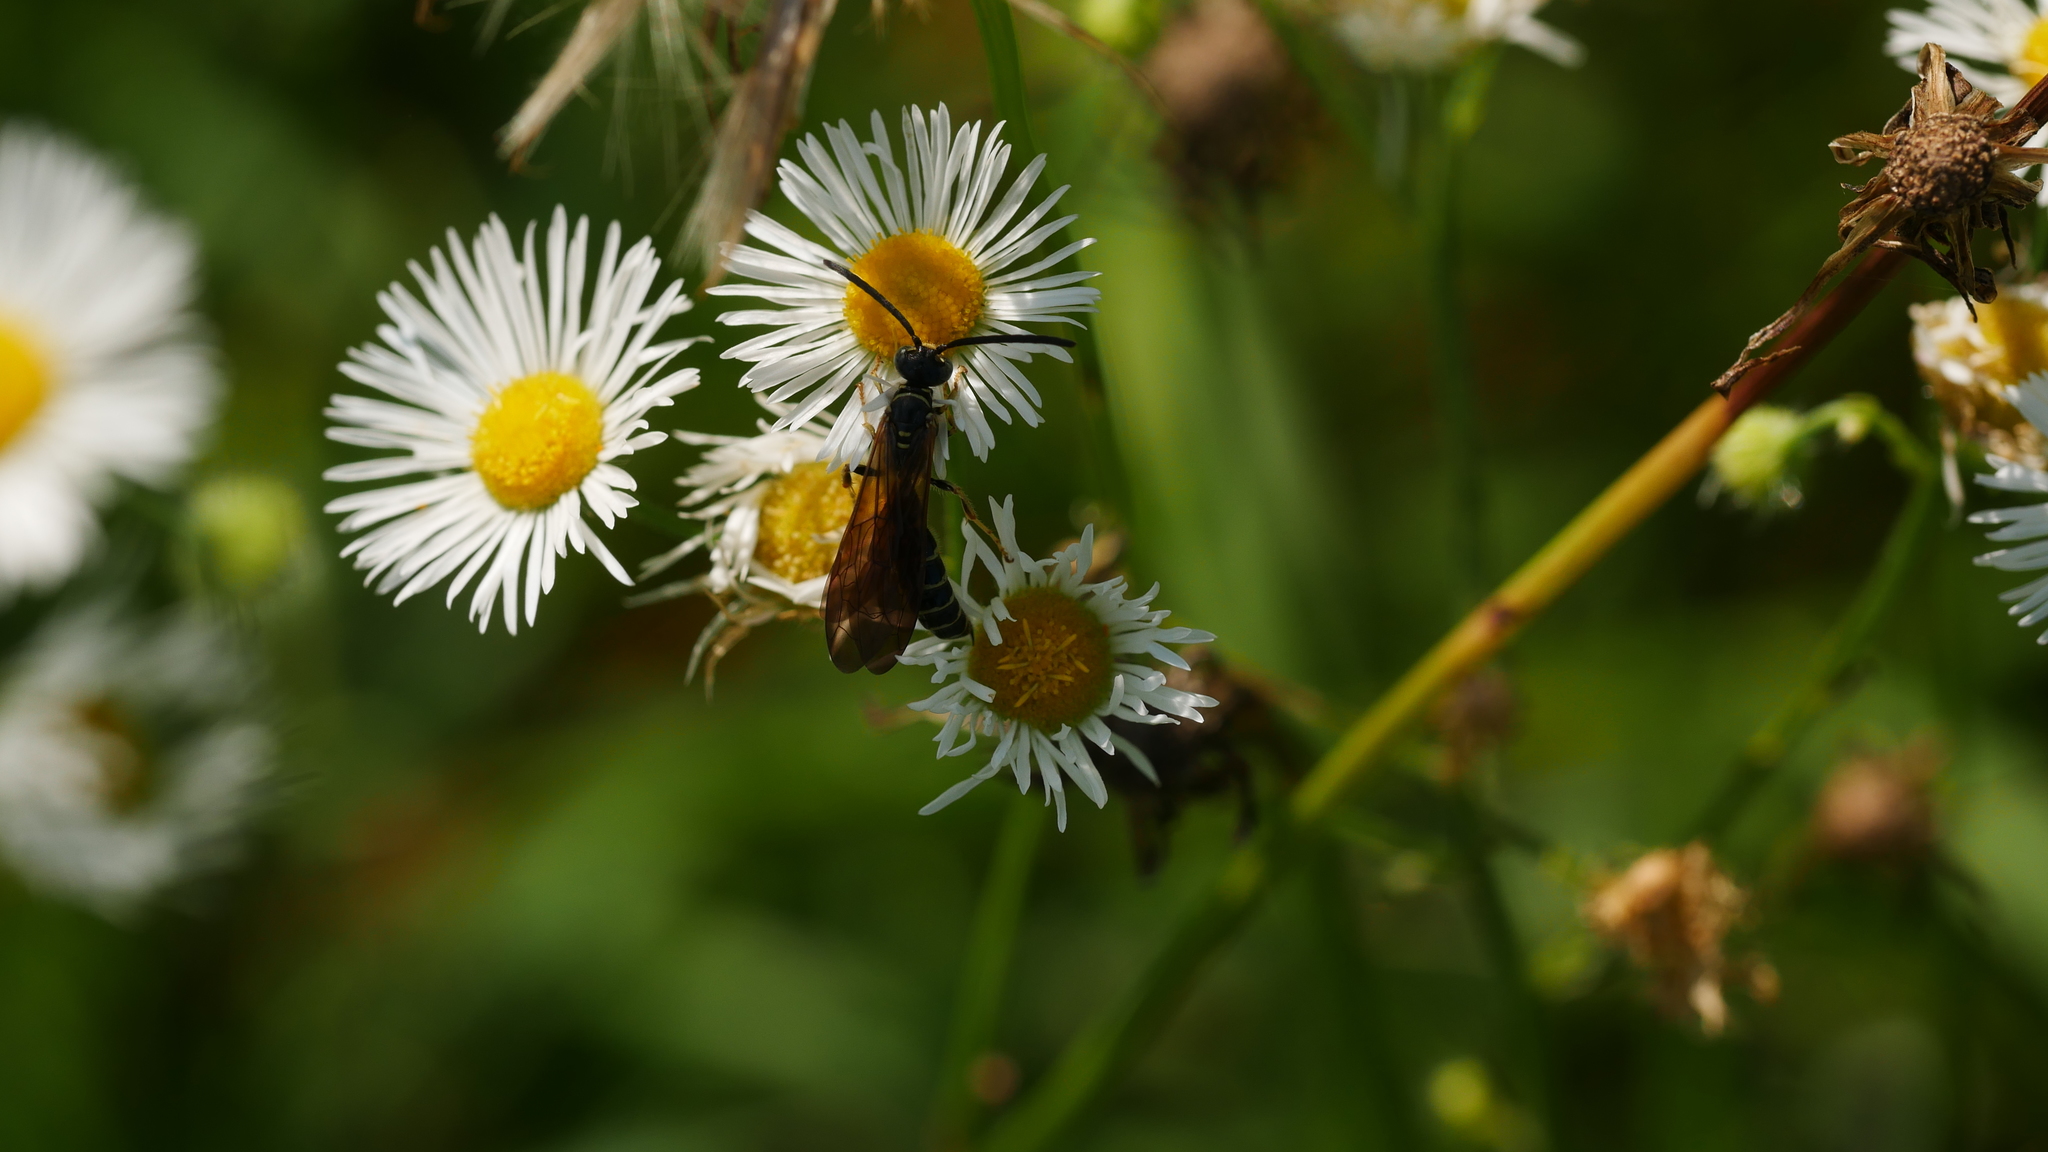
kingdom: Animalia
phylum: Arthropoda
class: Insecta
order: Hymenoptera
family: Tiphiidae
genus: Myzinum
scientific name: Myzinum
